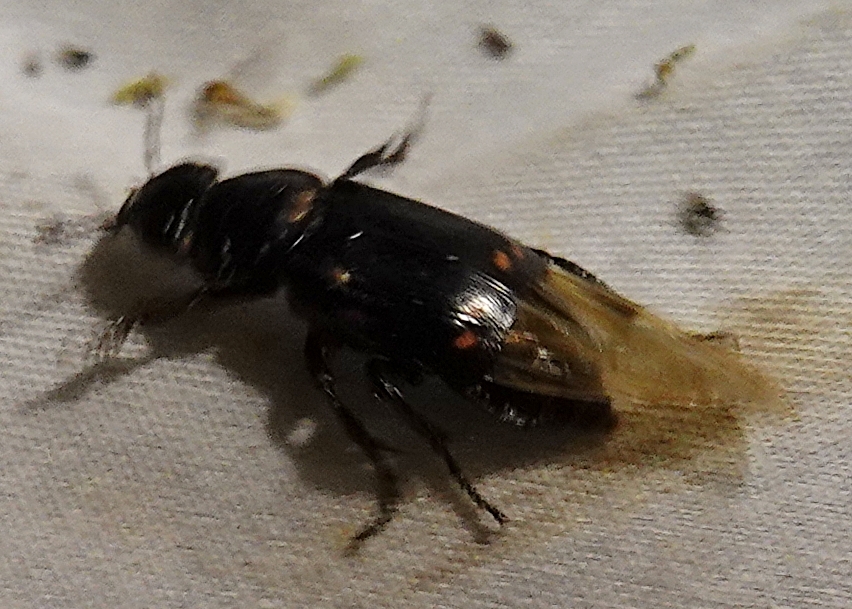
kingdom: Animalia
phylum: Arthropoda
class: Insecta
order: Coleoptera
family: Staphylinidae
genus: Nicrophorus
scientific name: Nicrophorus pustulatus
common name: Pustulated carrion beetle
